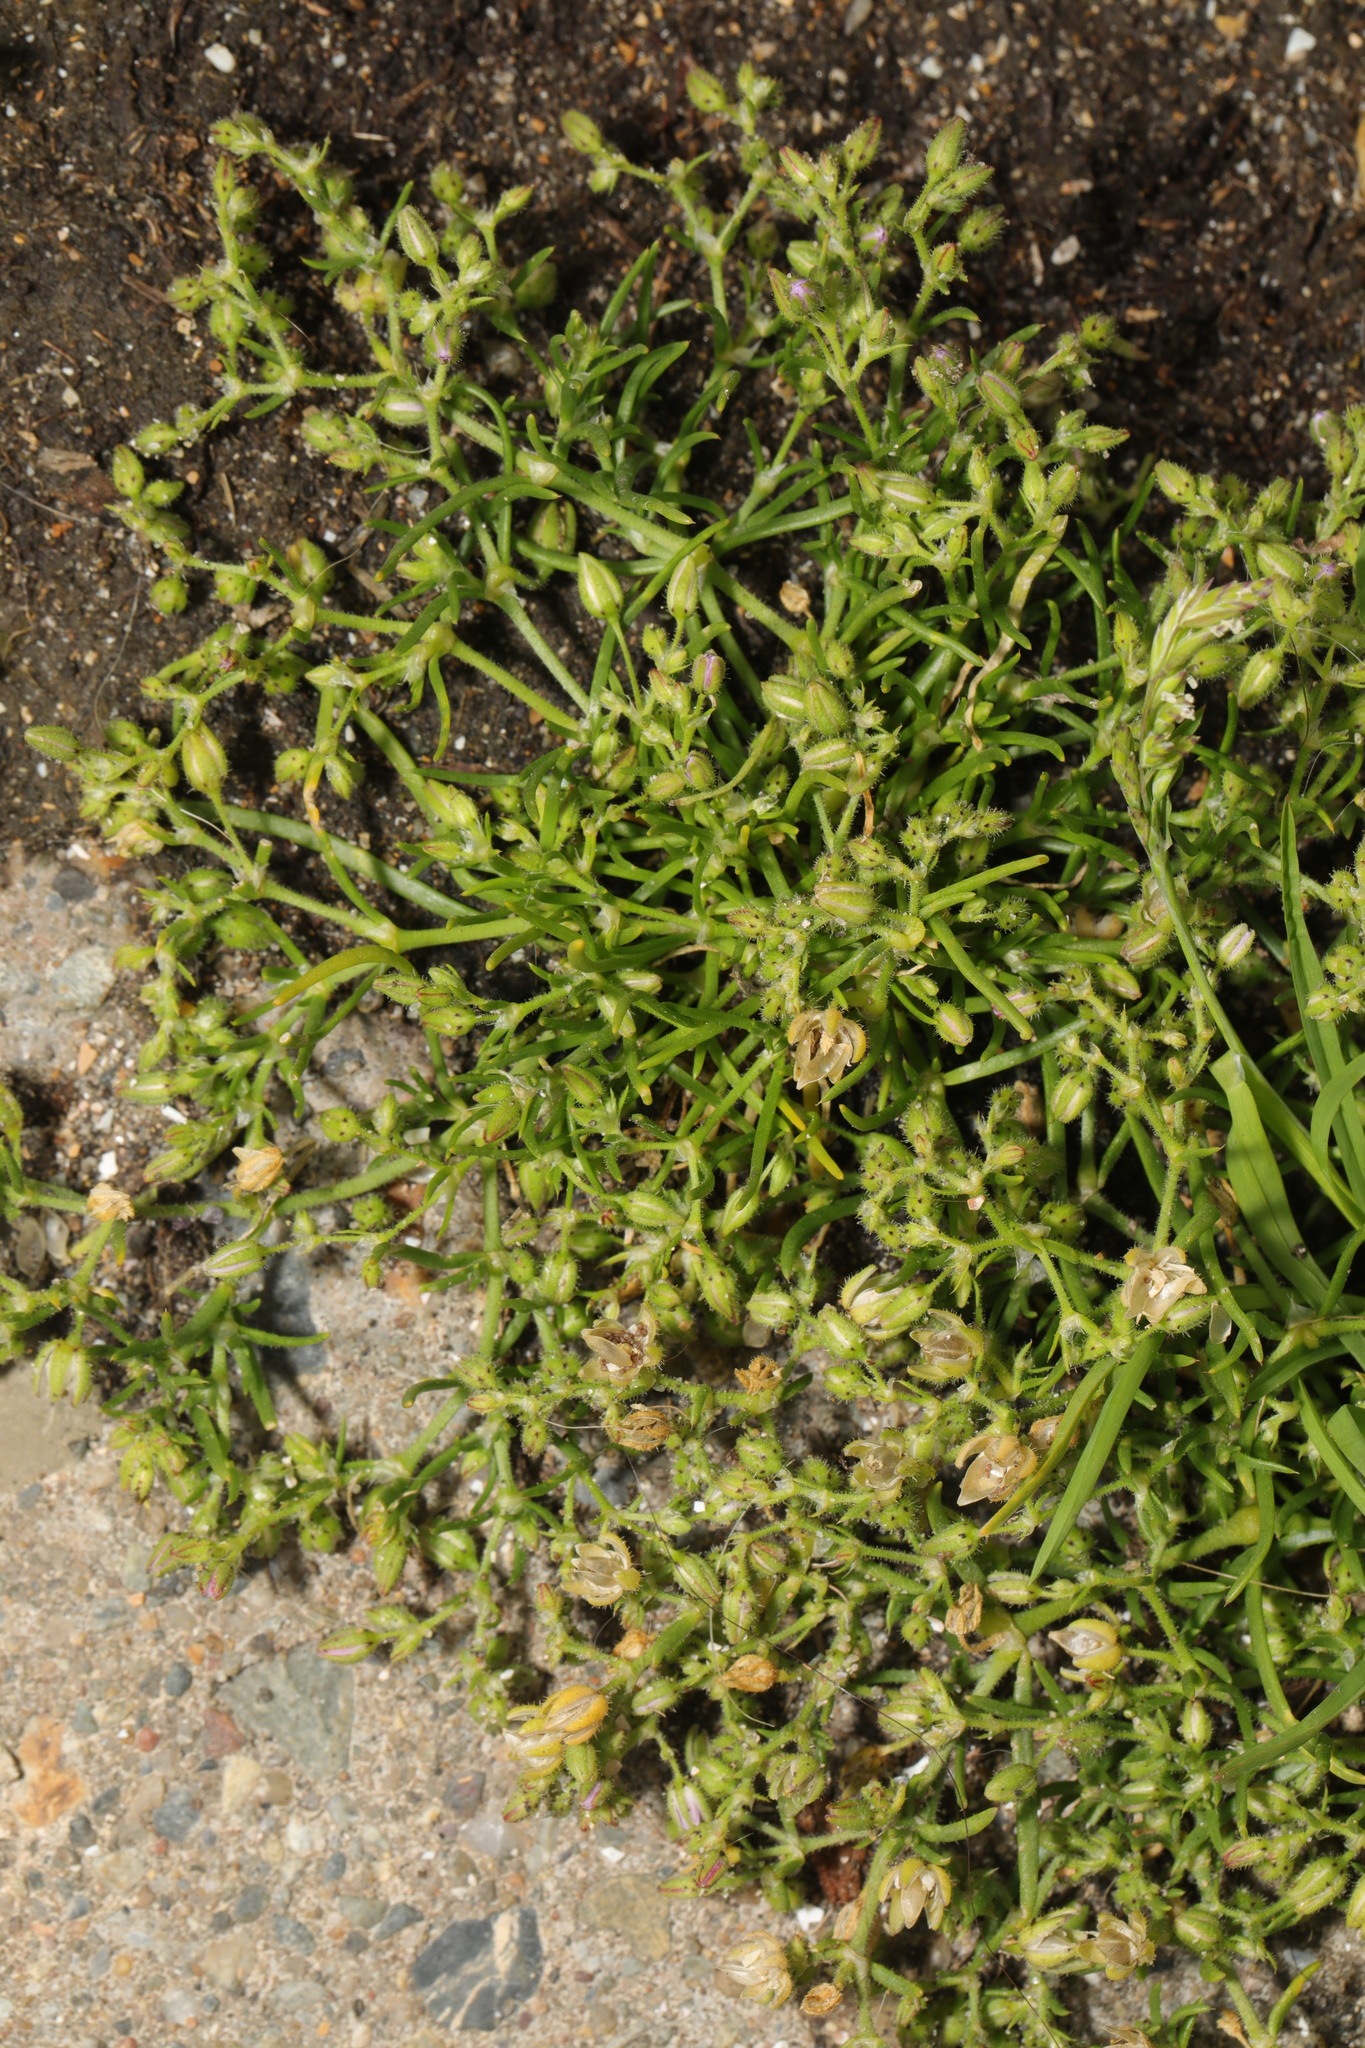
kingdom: Plantae
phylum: Tracheophyta
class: Magnoliopsida
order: Caryophyllales
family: Caryophyllaceae
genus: Spergularia
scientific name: Spergularia marina
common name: Lesser sea-spurrey
